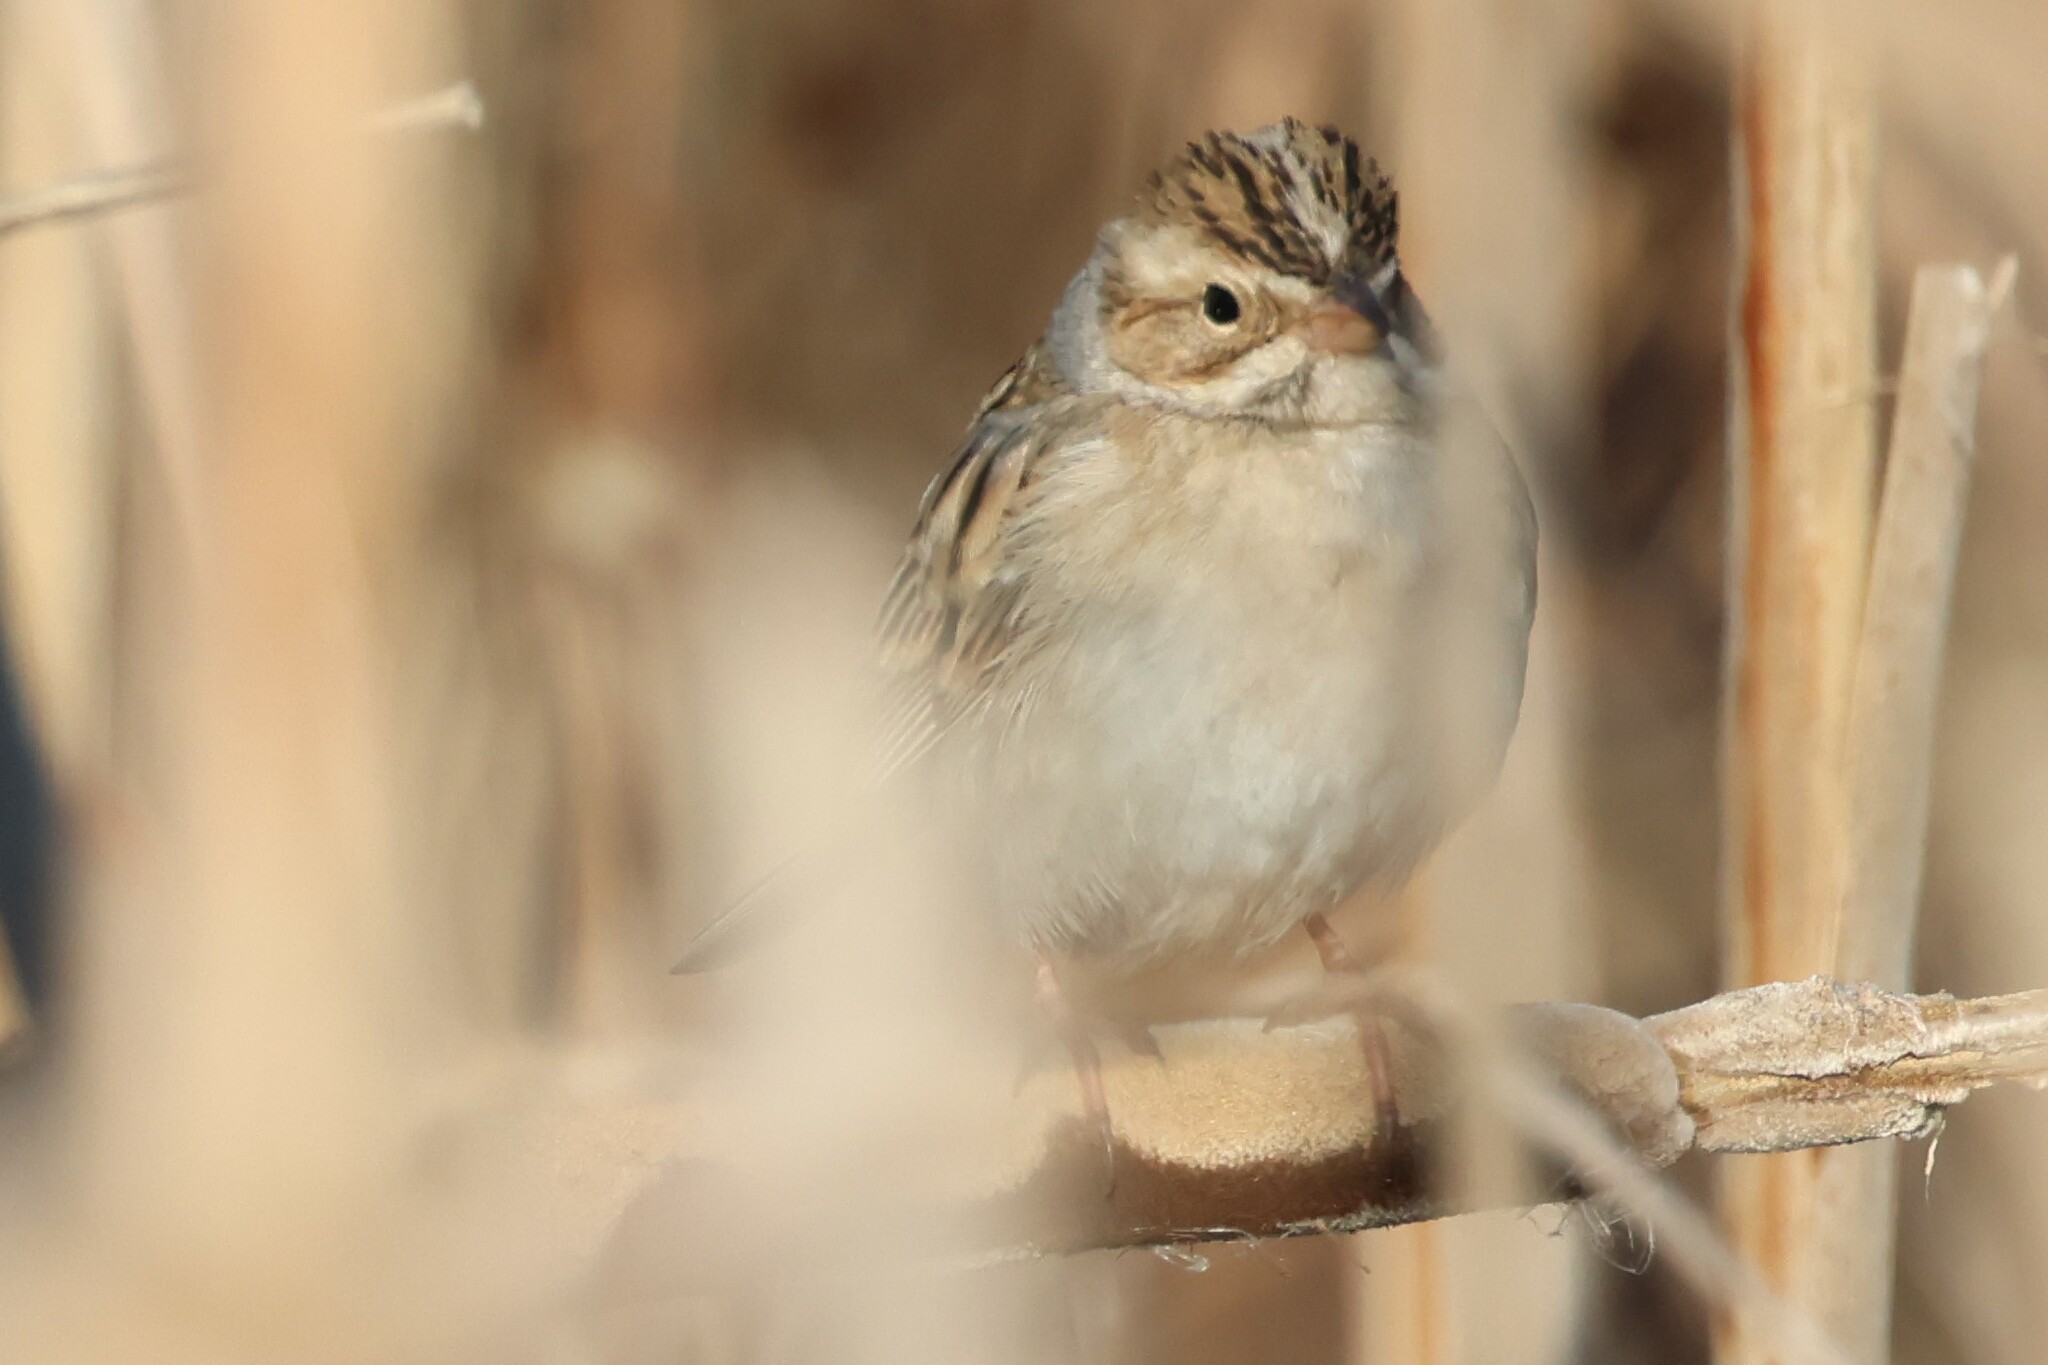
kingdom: Animalia
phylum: Chordata
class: Aves
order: Passeriformes
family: Passerellidae
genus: Spizella
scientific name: Spizella pallida
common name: Clay-colored sparrow
